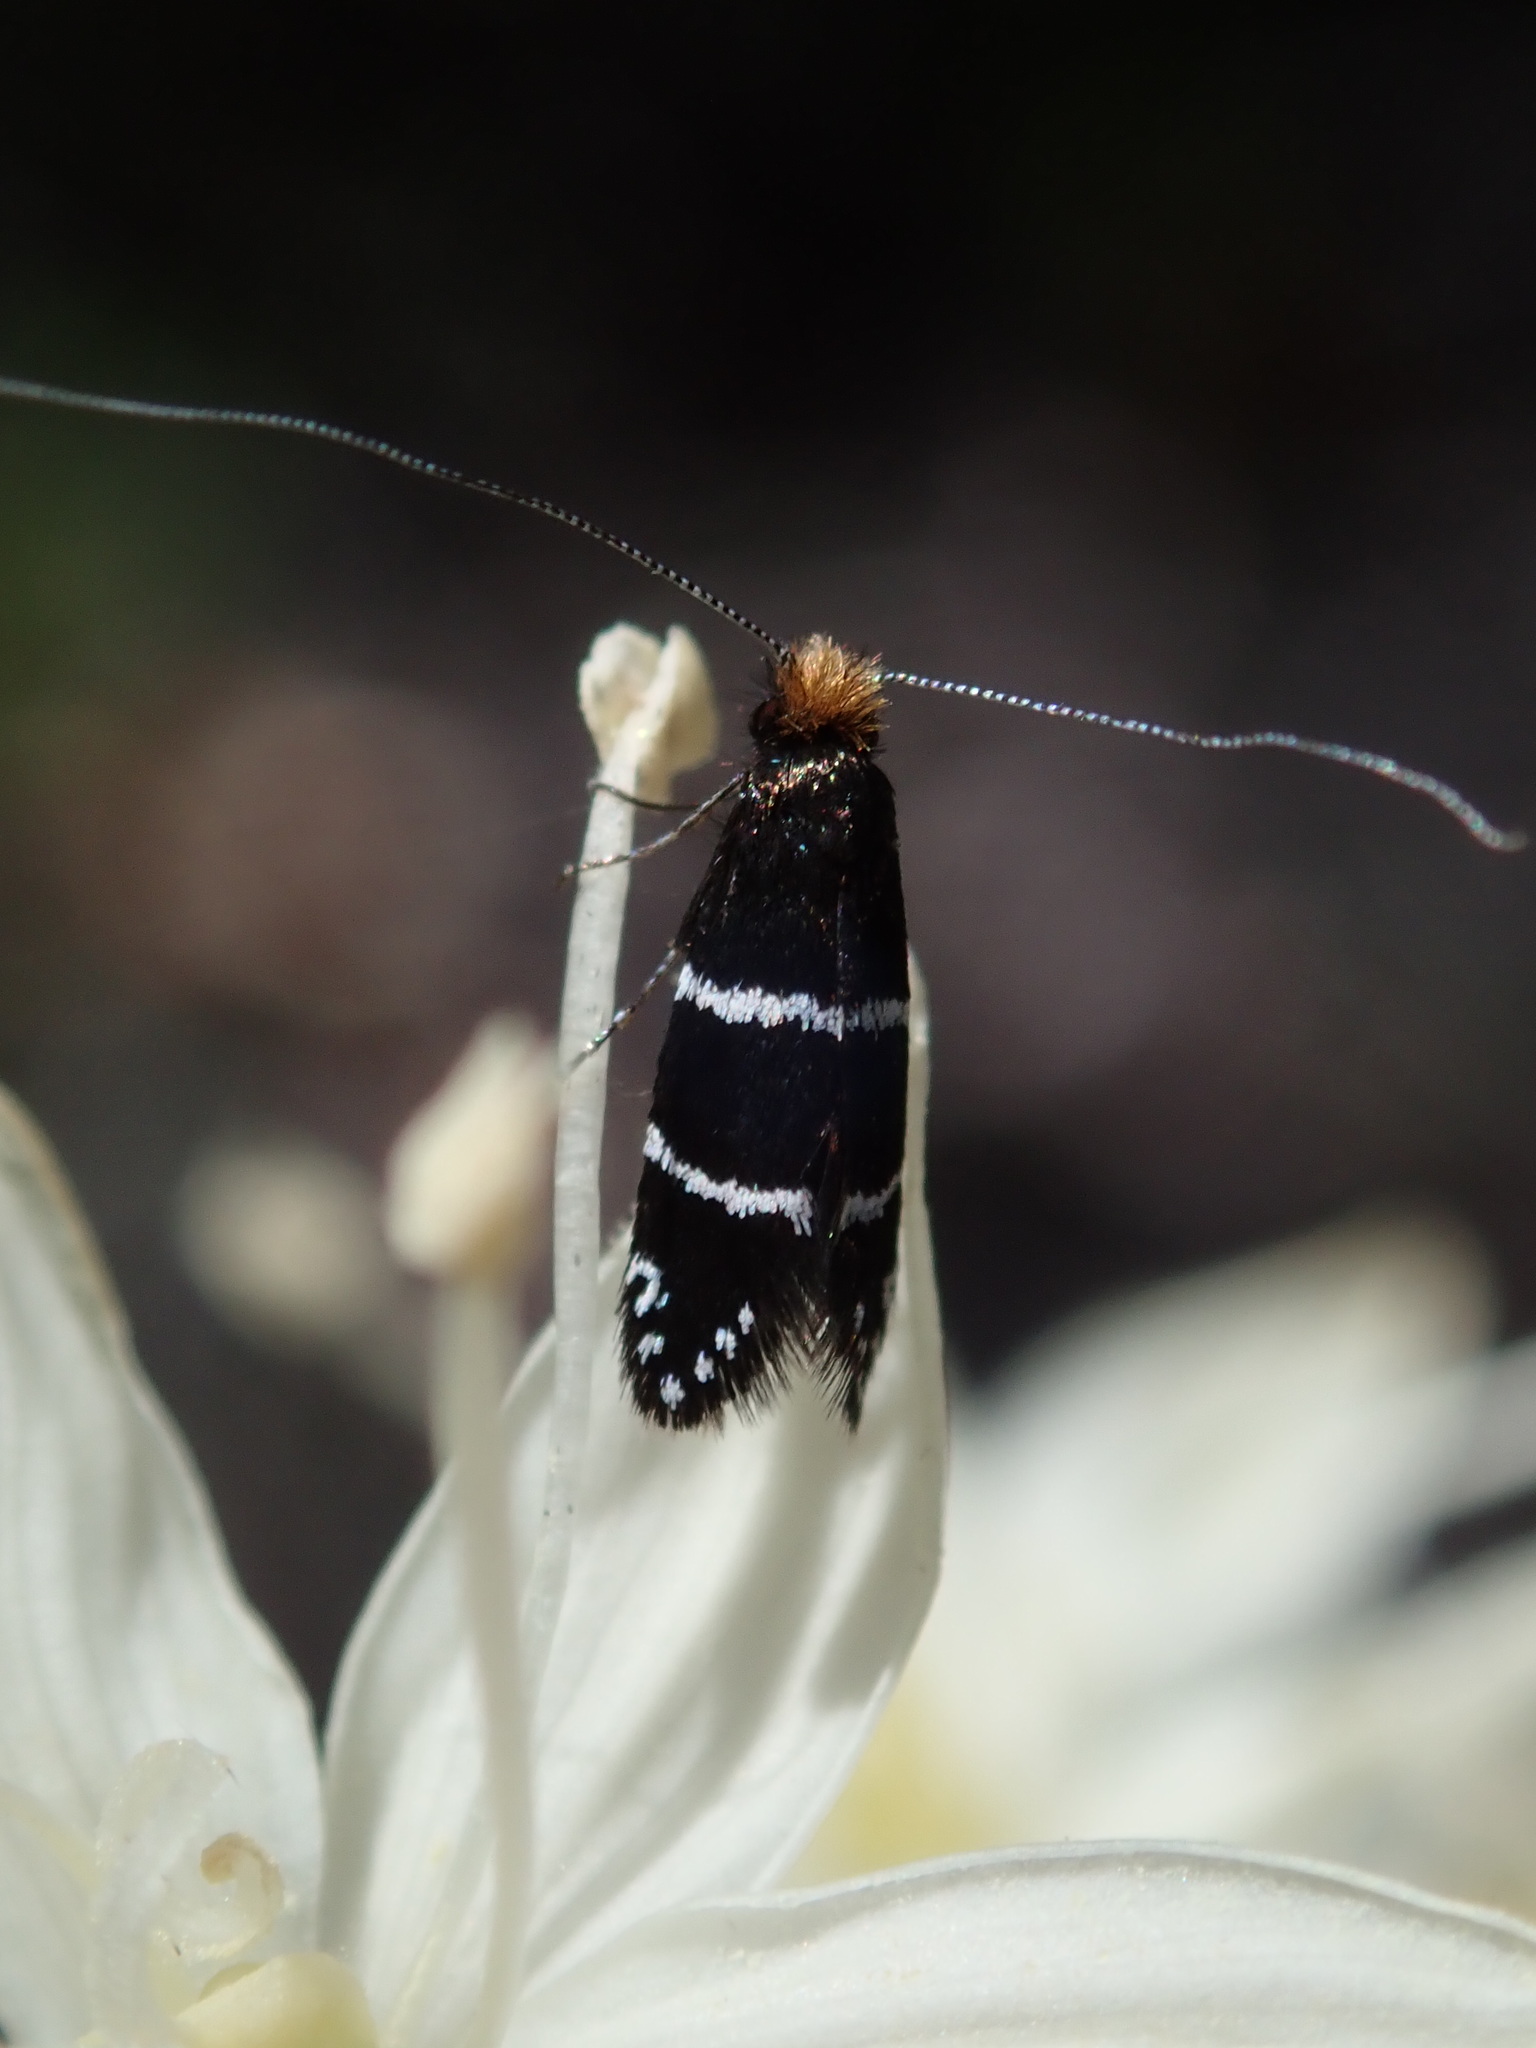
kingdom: Animalia
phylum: Arthropoda
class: Insecta
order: Lepidoptera
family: Adelidae
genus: Adela
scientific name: Adela septentrionella
